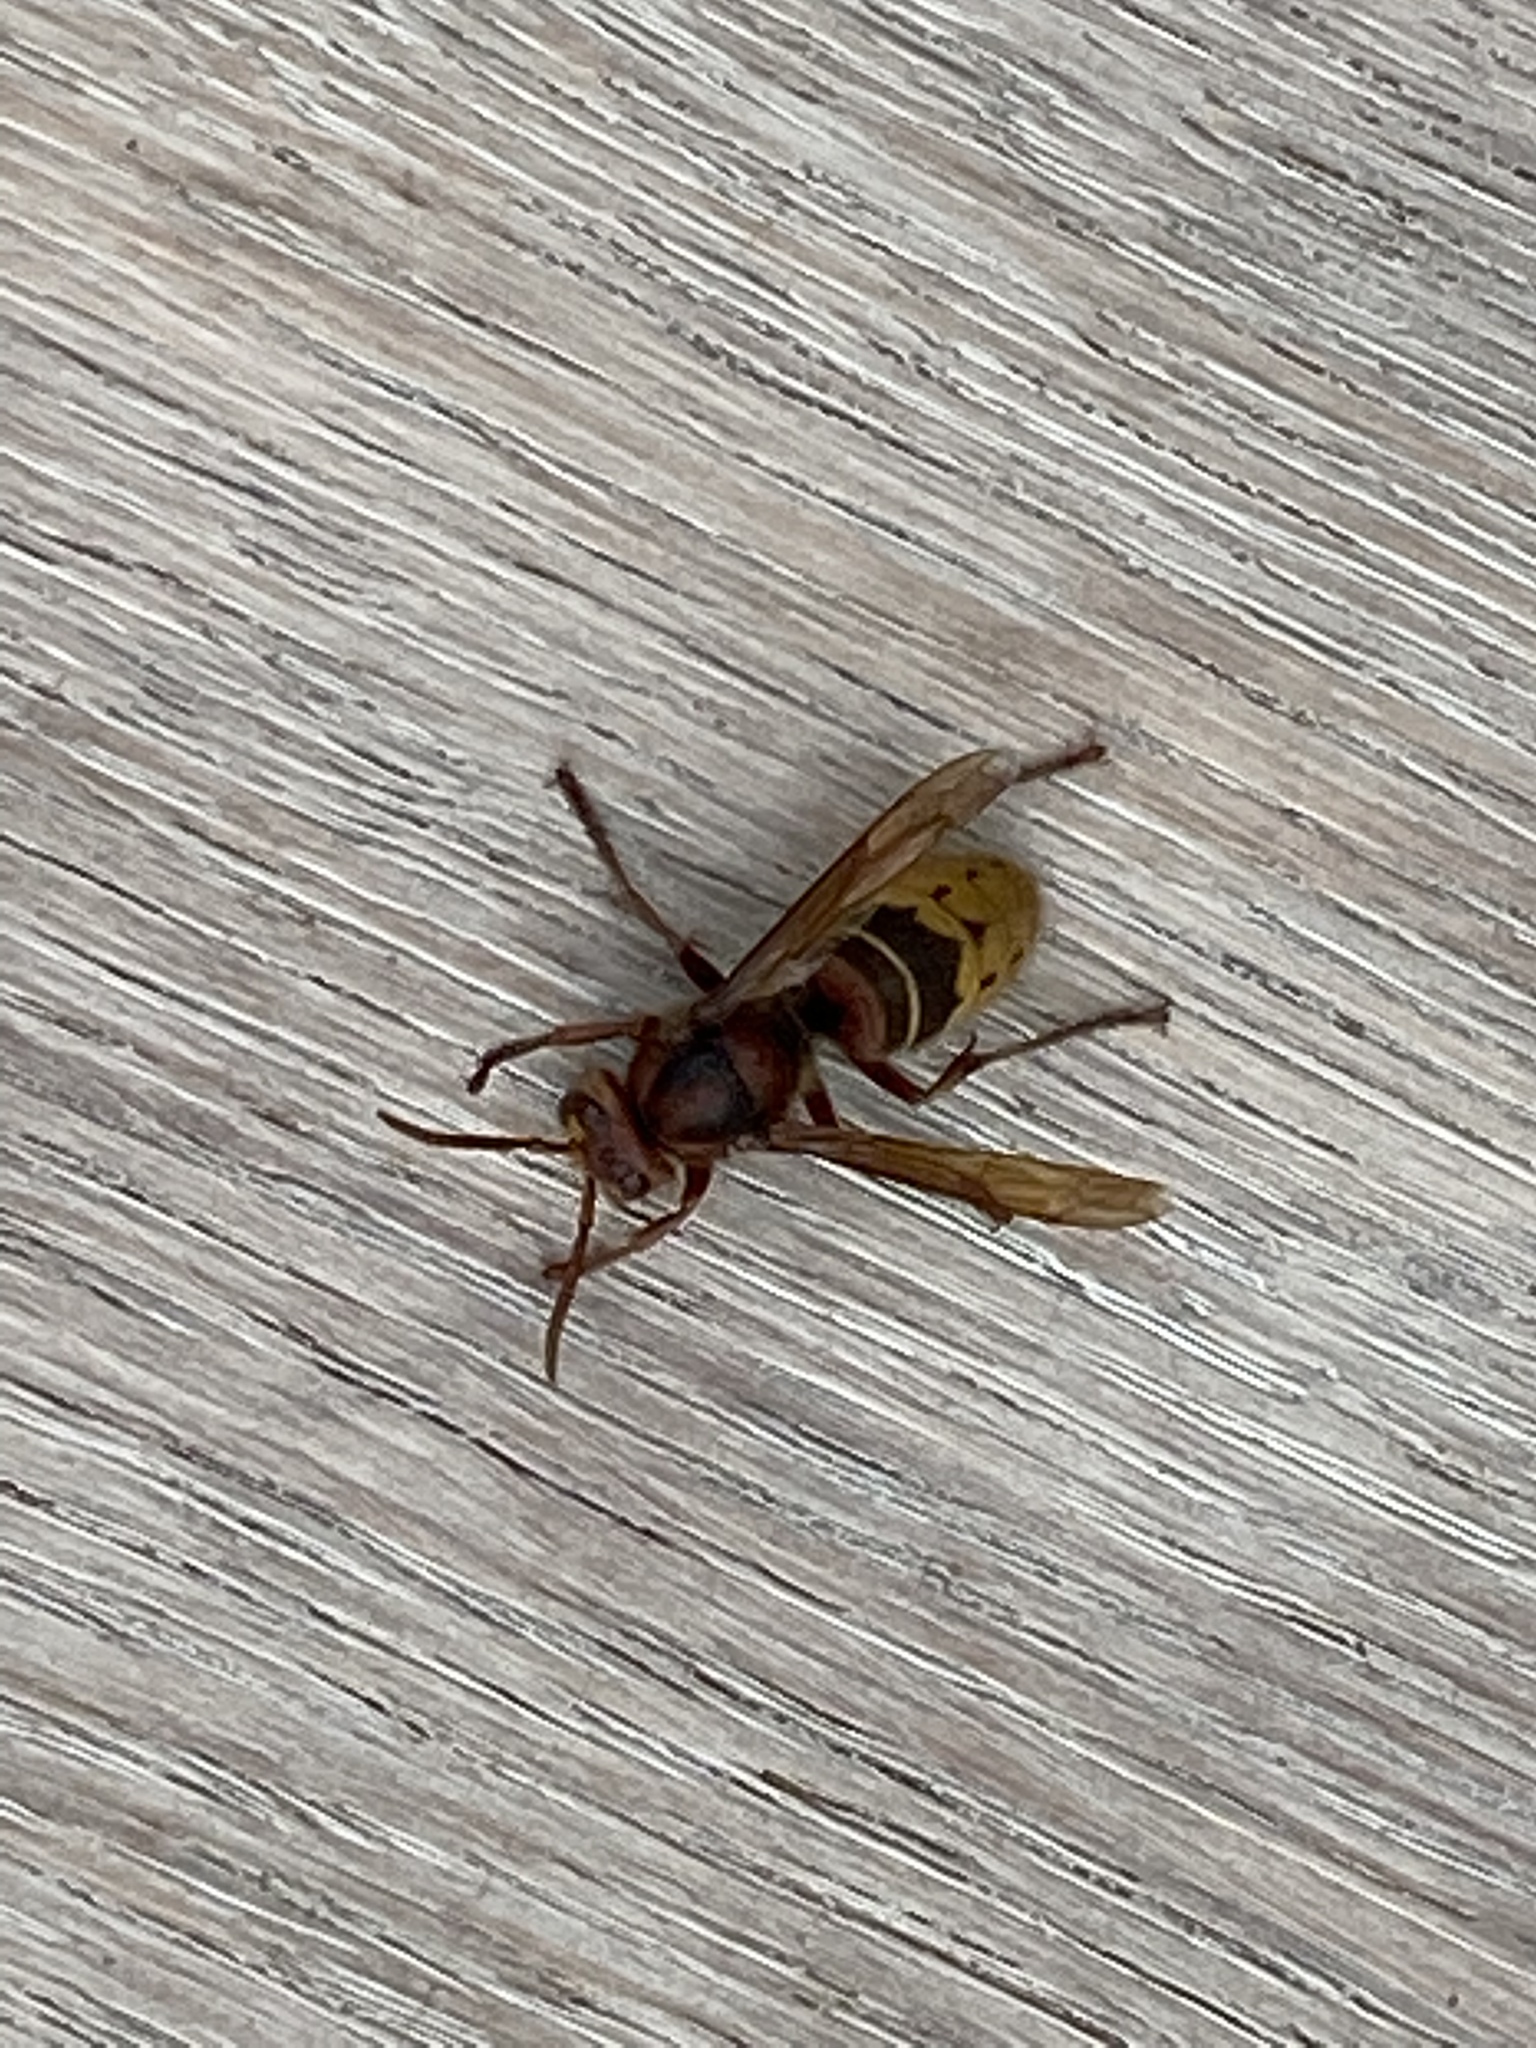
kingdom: Animalia
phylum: Arthropoda
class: Insecta
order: Hymenoptera
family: Vespidae
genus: Vespa
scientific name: Vespa crabro
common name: Hornet
